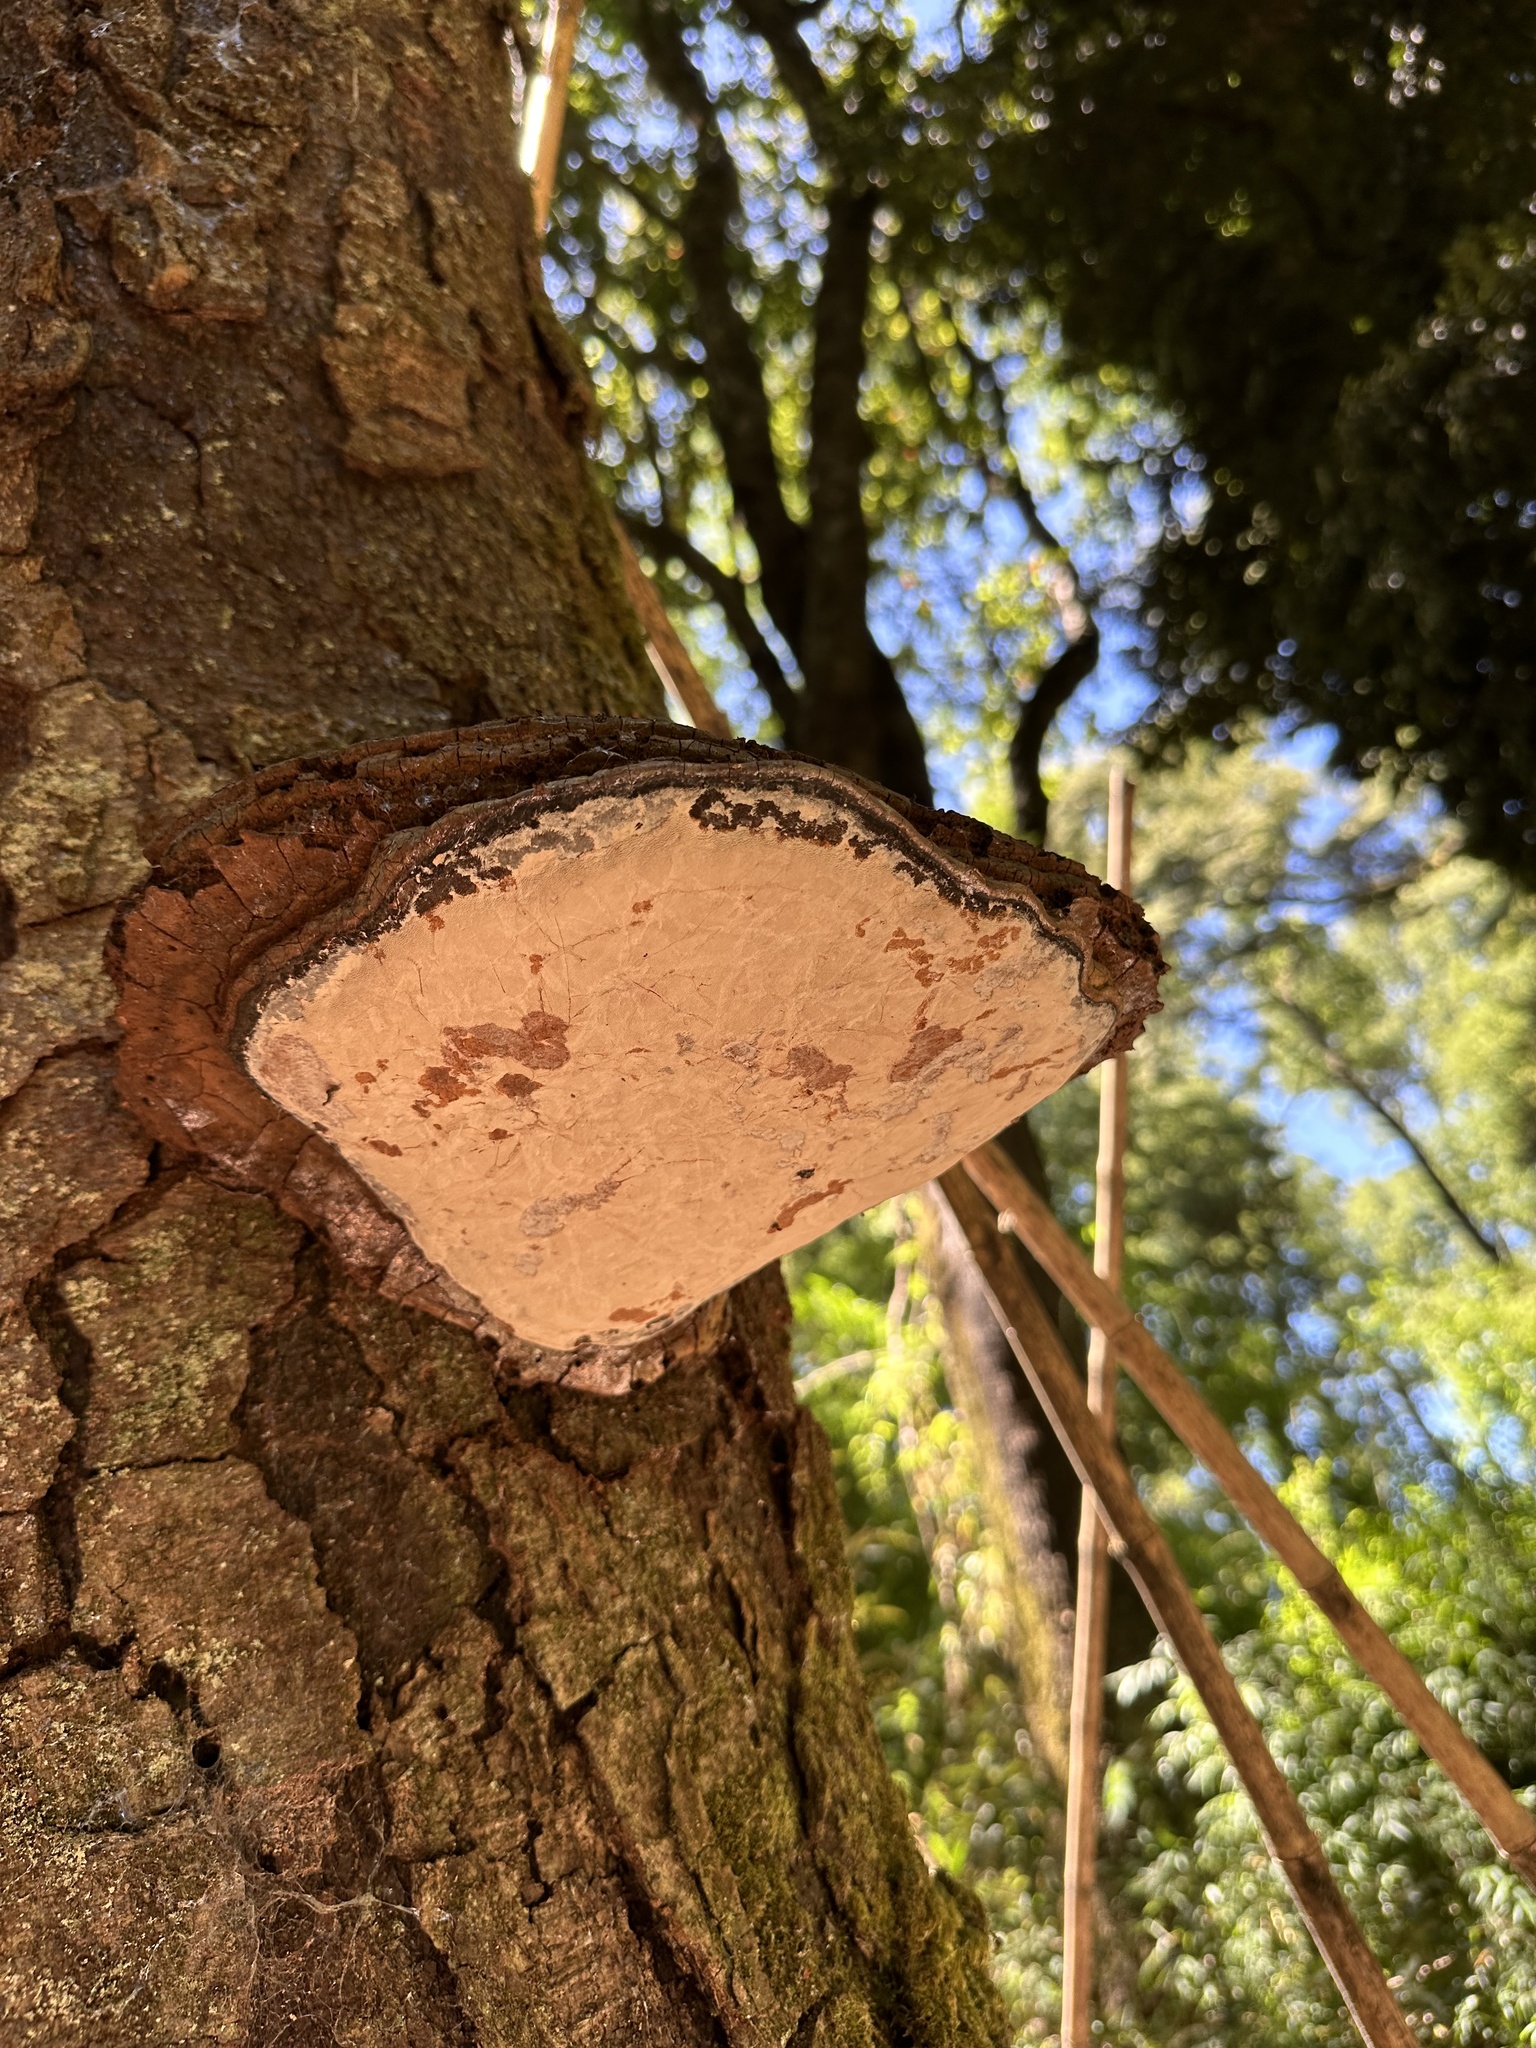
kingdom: Fungi
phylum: Basidiomycota
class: Agaricomycetes
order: Polyporales
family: Polyporaceae
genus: Ganoderma
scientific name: Ganoderma australe
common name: Southern bracket
